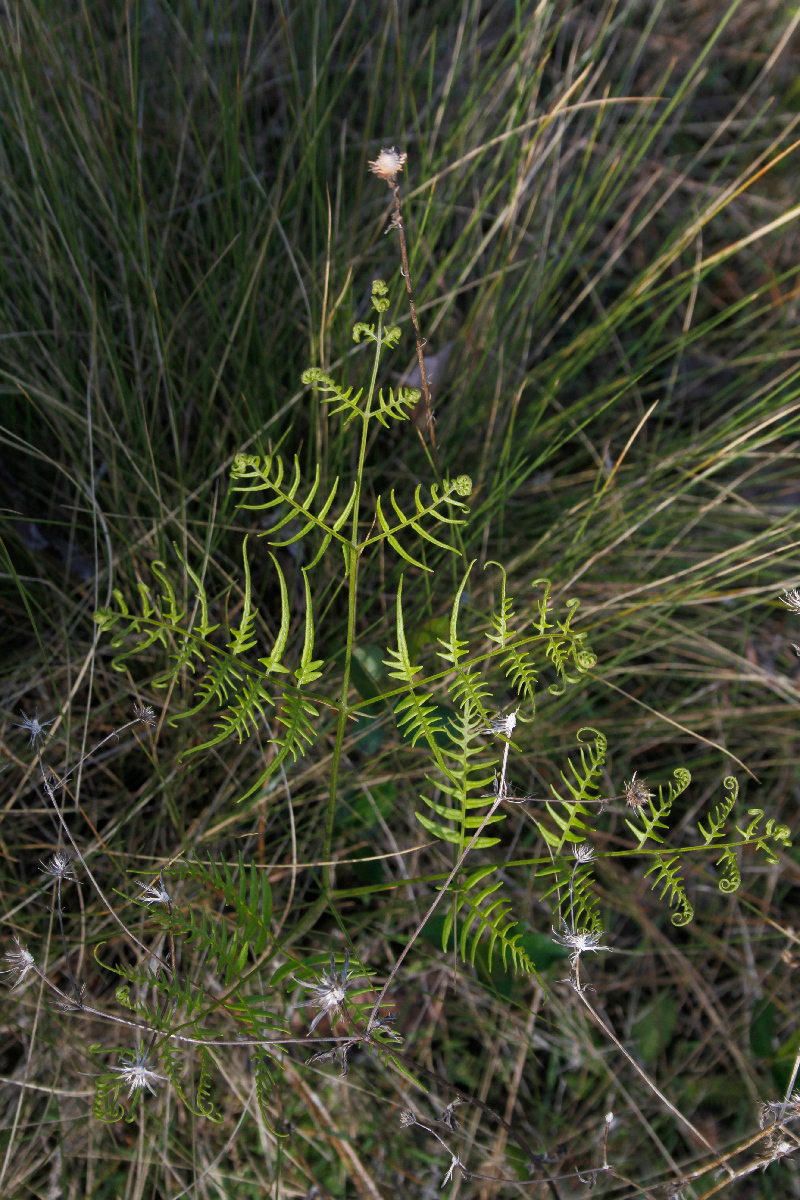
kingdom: Plantae
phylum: Tracheophyta
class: Polypodiopsida
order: Polypodiales
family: Dennstaedtiaceae
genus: Pteridium
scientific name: Pteridium
